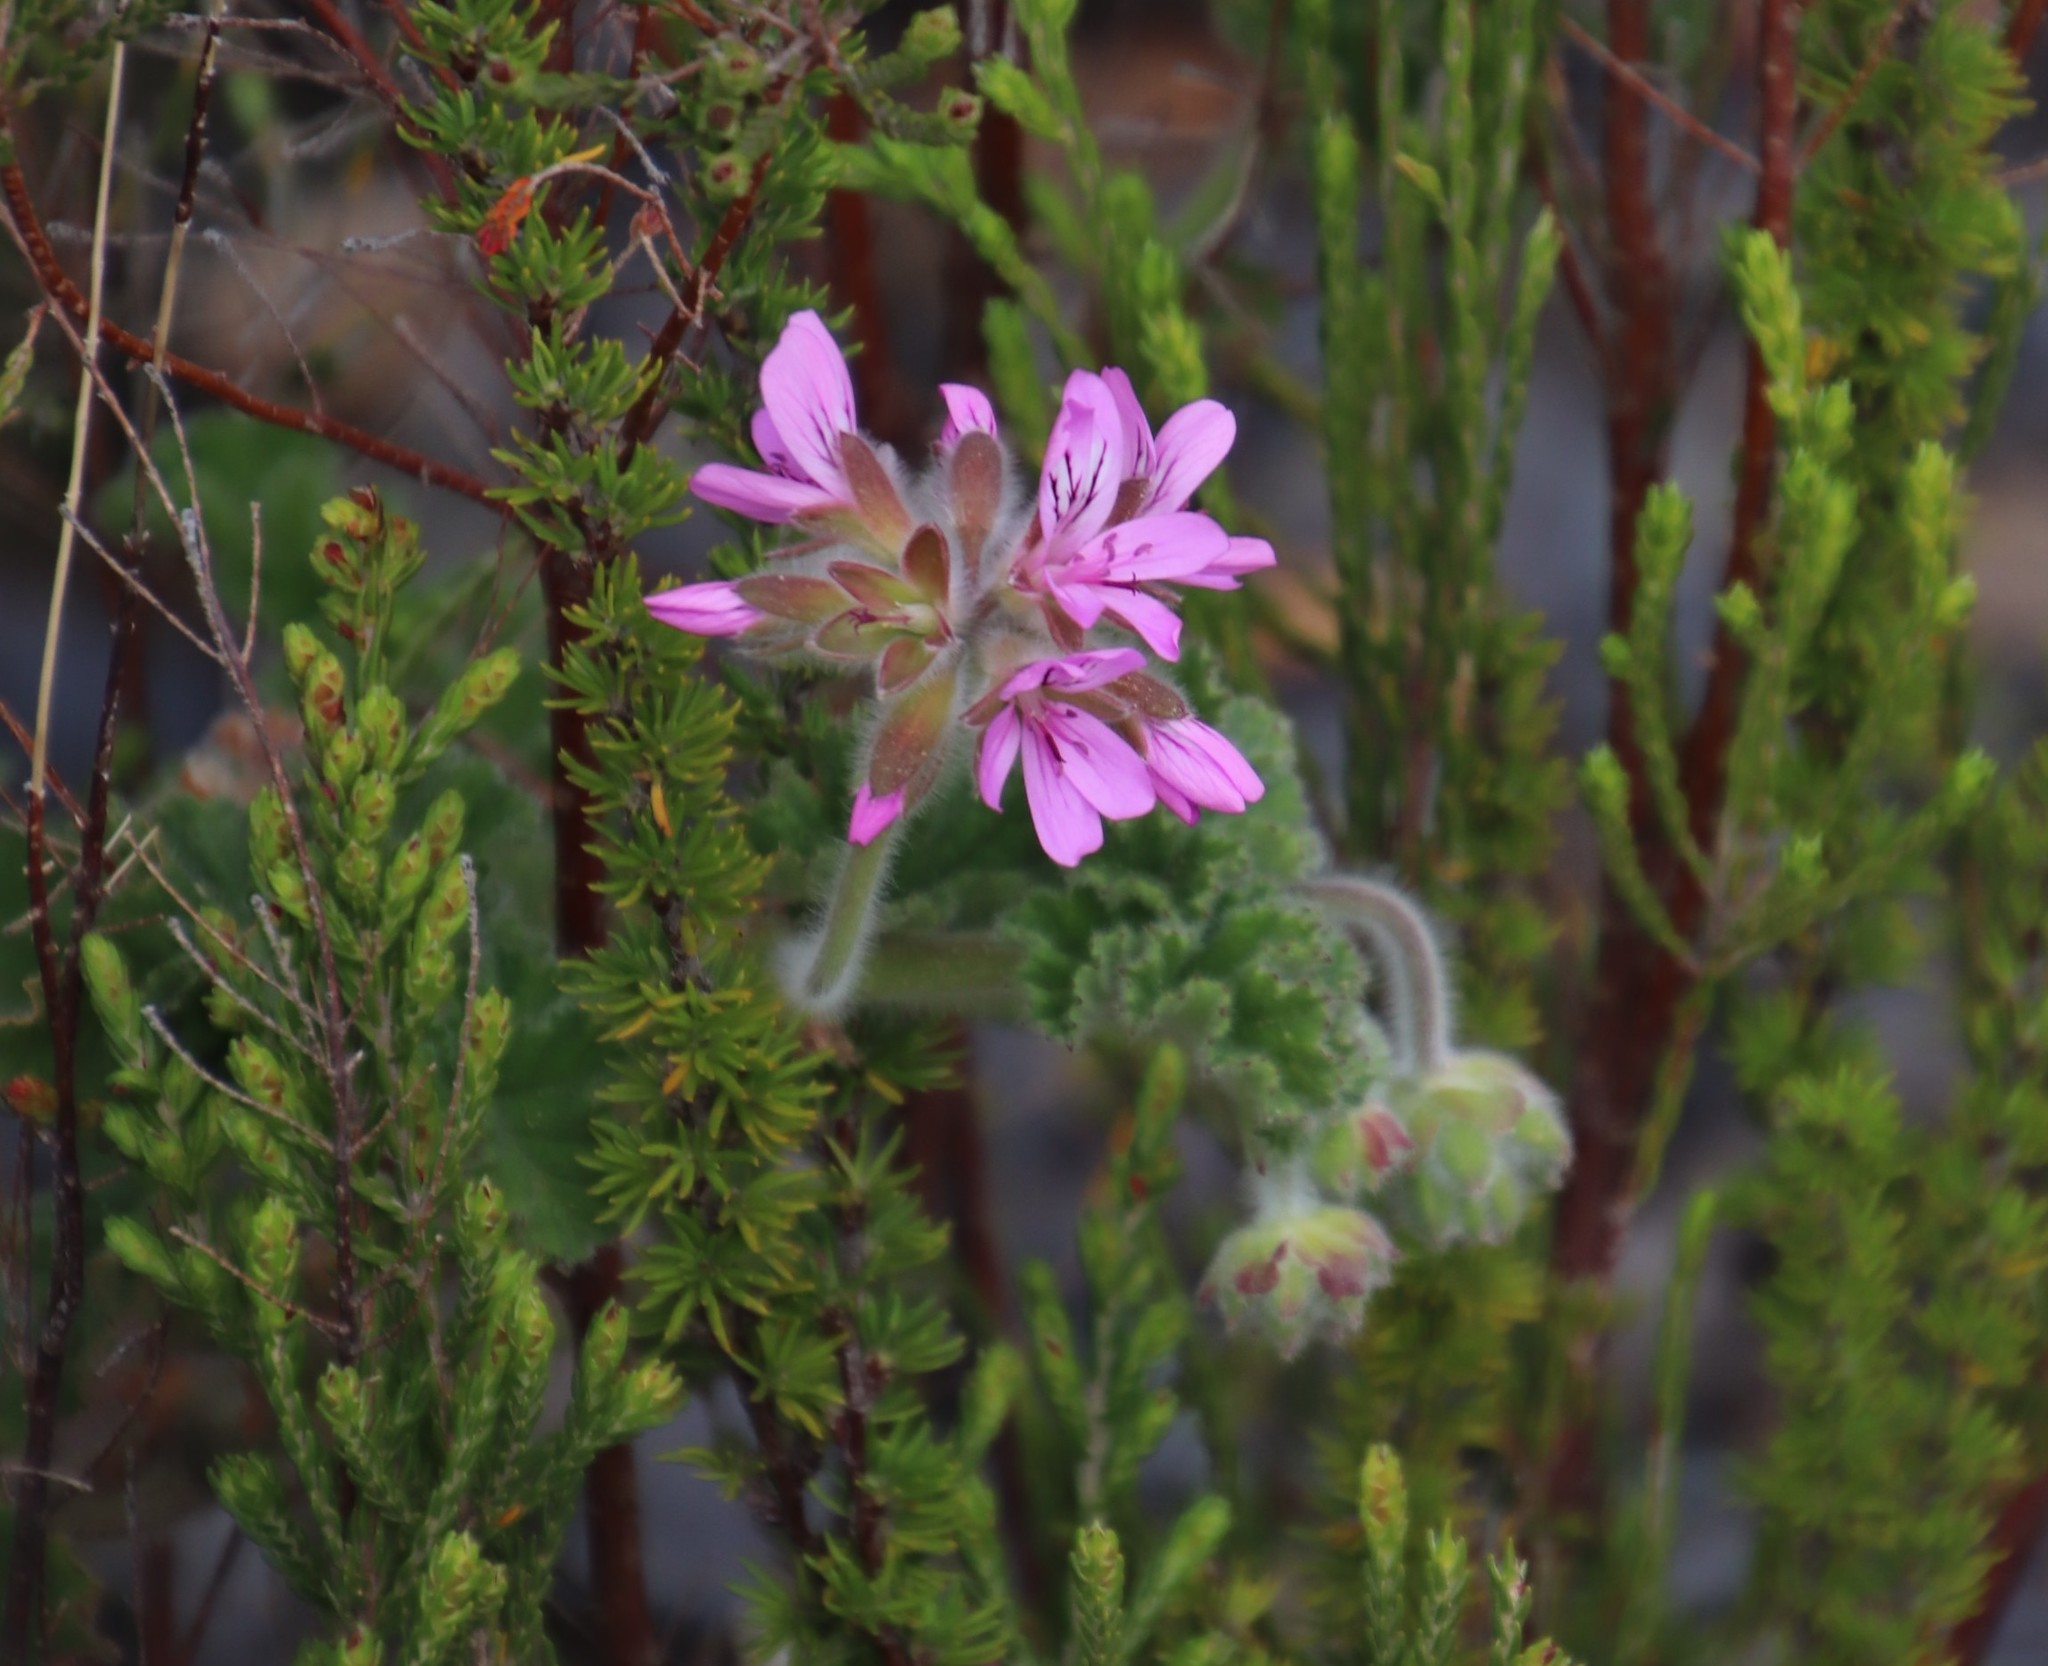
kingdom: Plantae
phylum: Tracheophyta
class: Magnoliopsida
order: Geraniales
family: Geraniaceae
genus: Pelargonium
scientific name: Pelargonium capitatum
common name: Rose scented geranium
